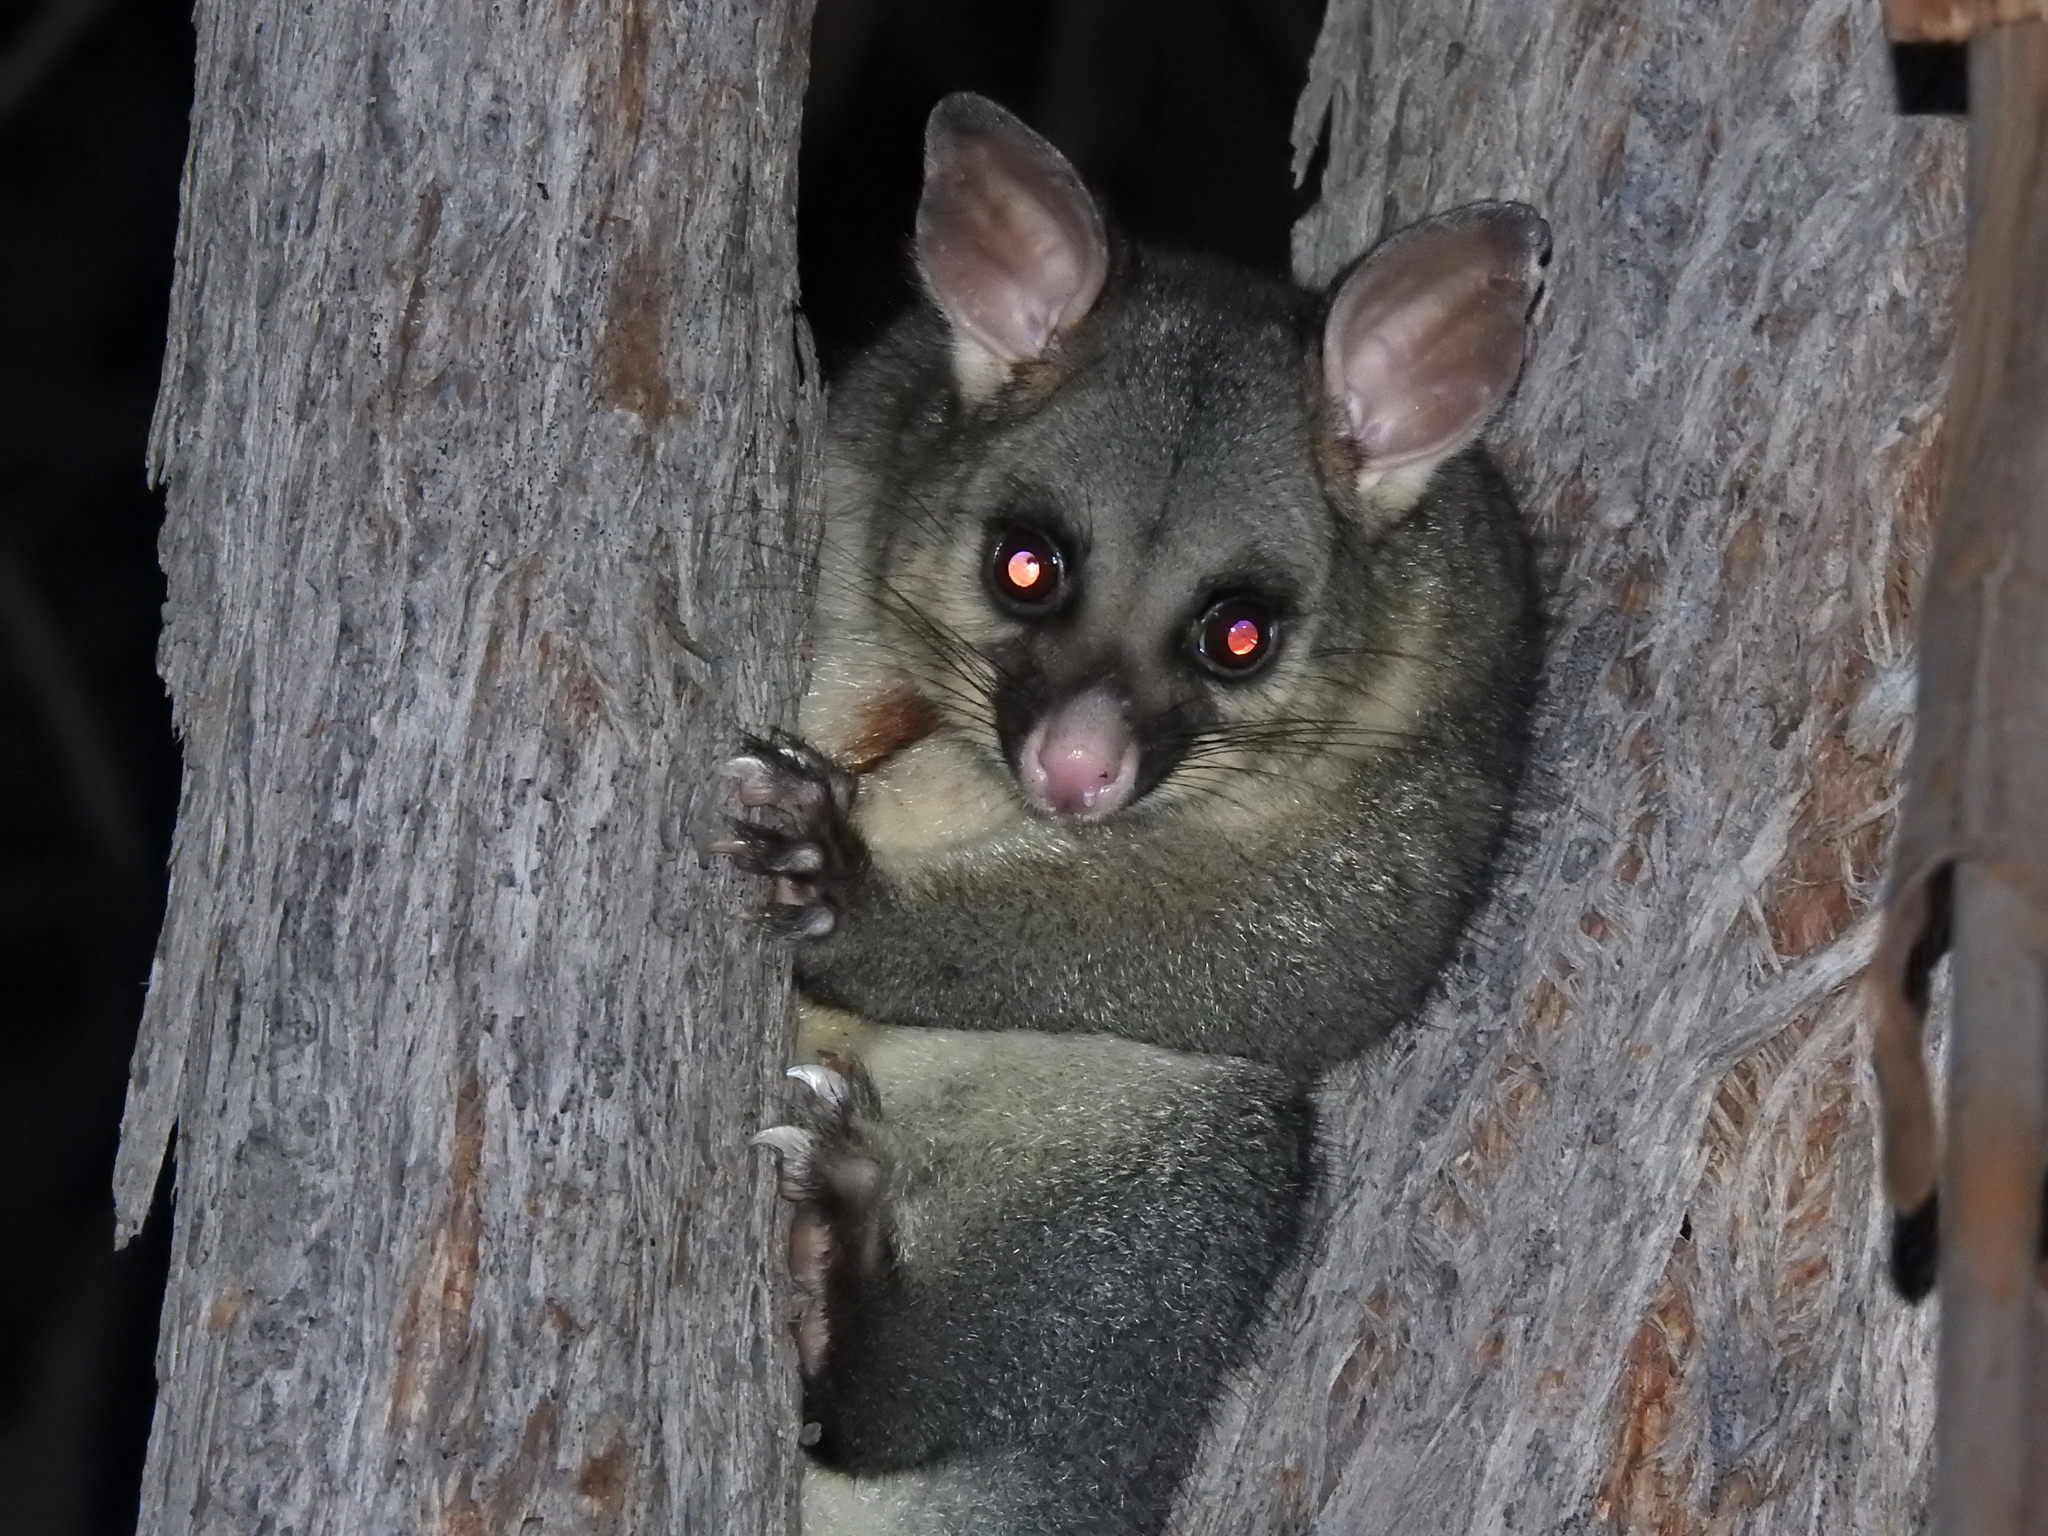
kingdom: Animalia
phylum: Chordata
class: Mammalia
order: Diprotodontia
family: Phalangeridae
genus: Trichosurus
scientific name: Trichosurus vulpecula
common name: Common brushtail
